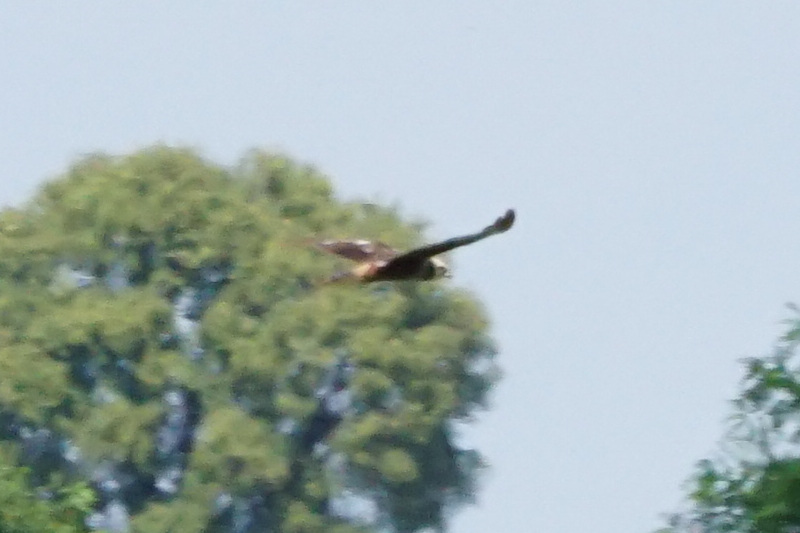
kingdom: Animalia
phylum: Chordata
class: Aves
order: Accipitriformes
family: Accipitridae
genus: Circus
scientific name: Circus aeruginosus
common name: Western marsh harrier
